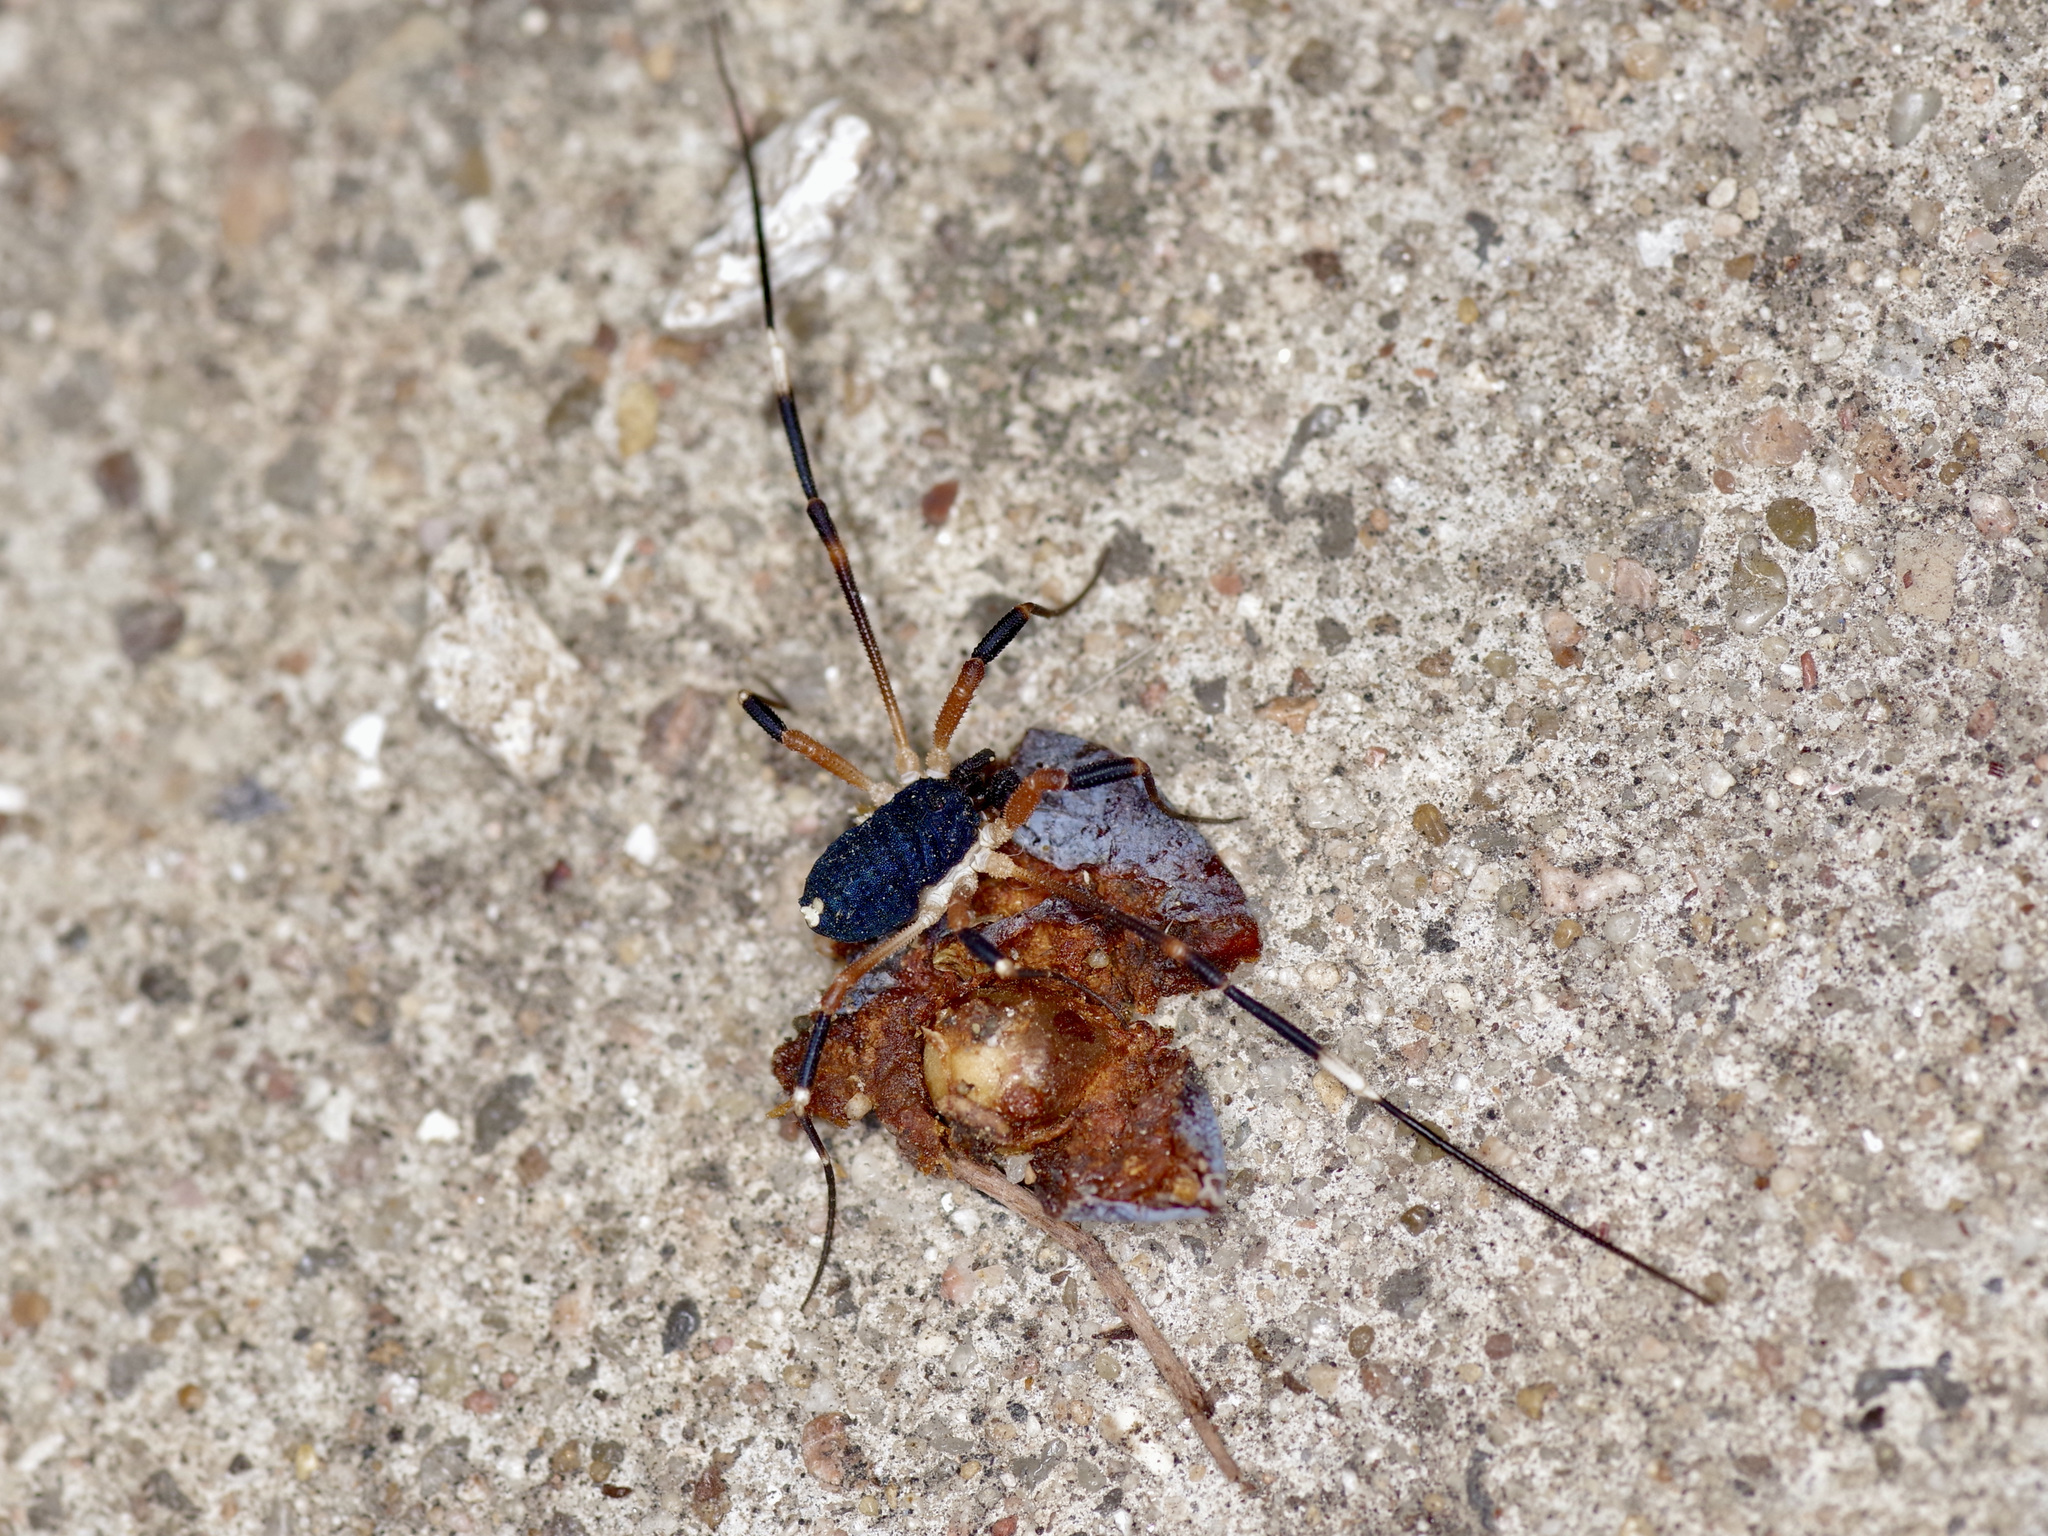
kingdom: Animalia
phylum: Arthropoda
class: Arachnida
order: Opiliones
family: Globipedidae
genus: Dalquestia
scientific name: Dalquestia formosa
